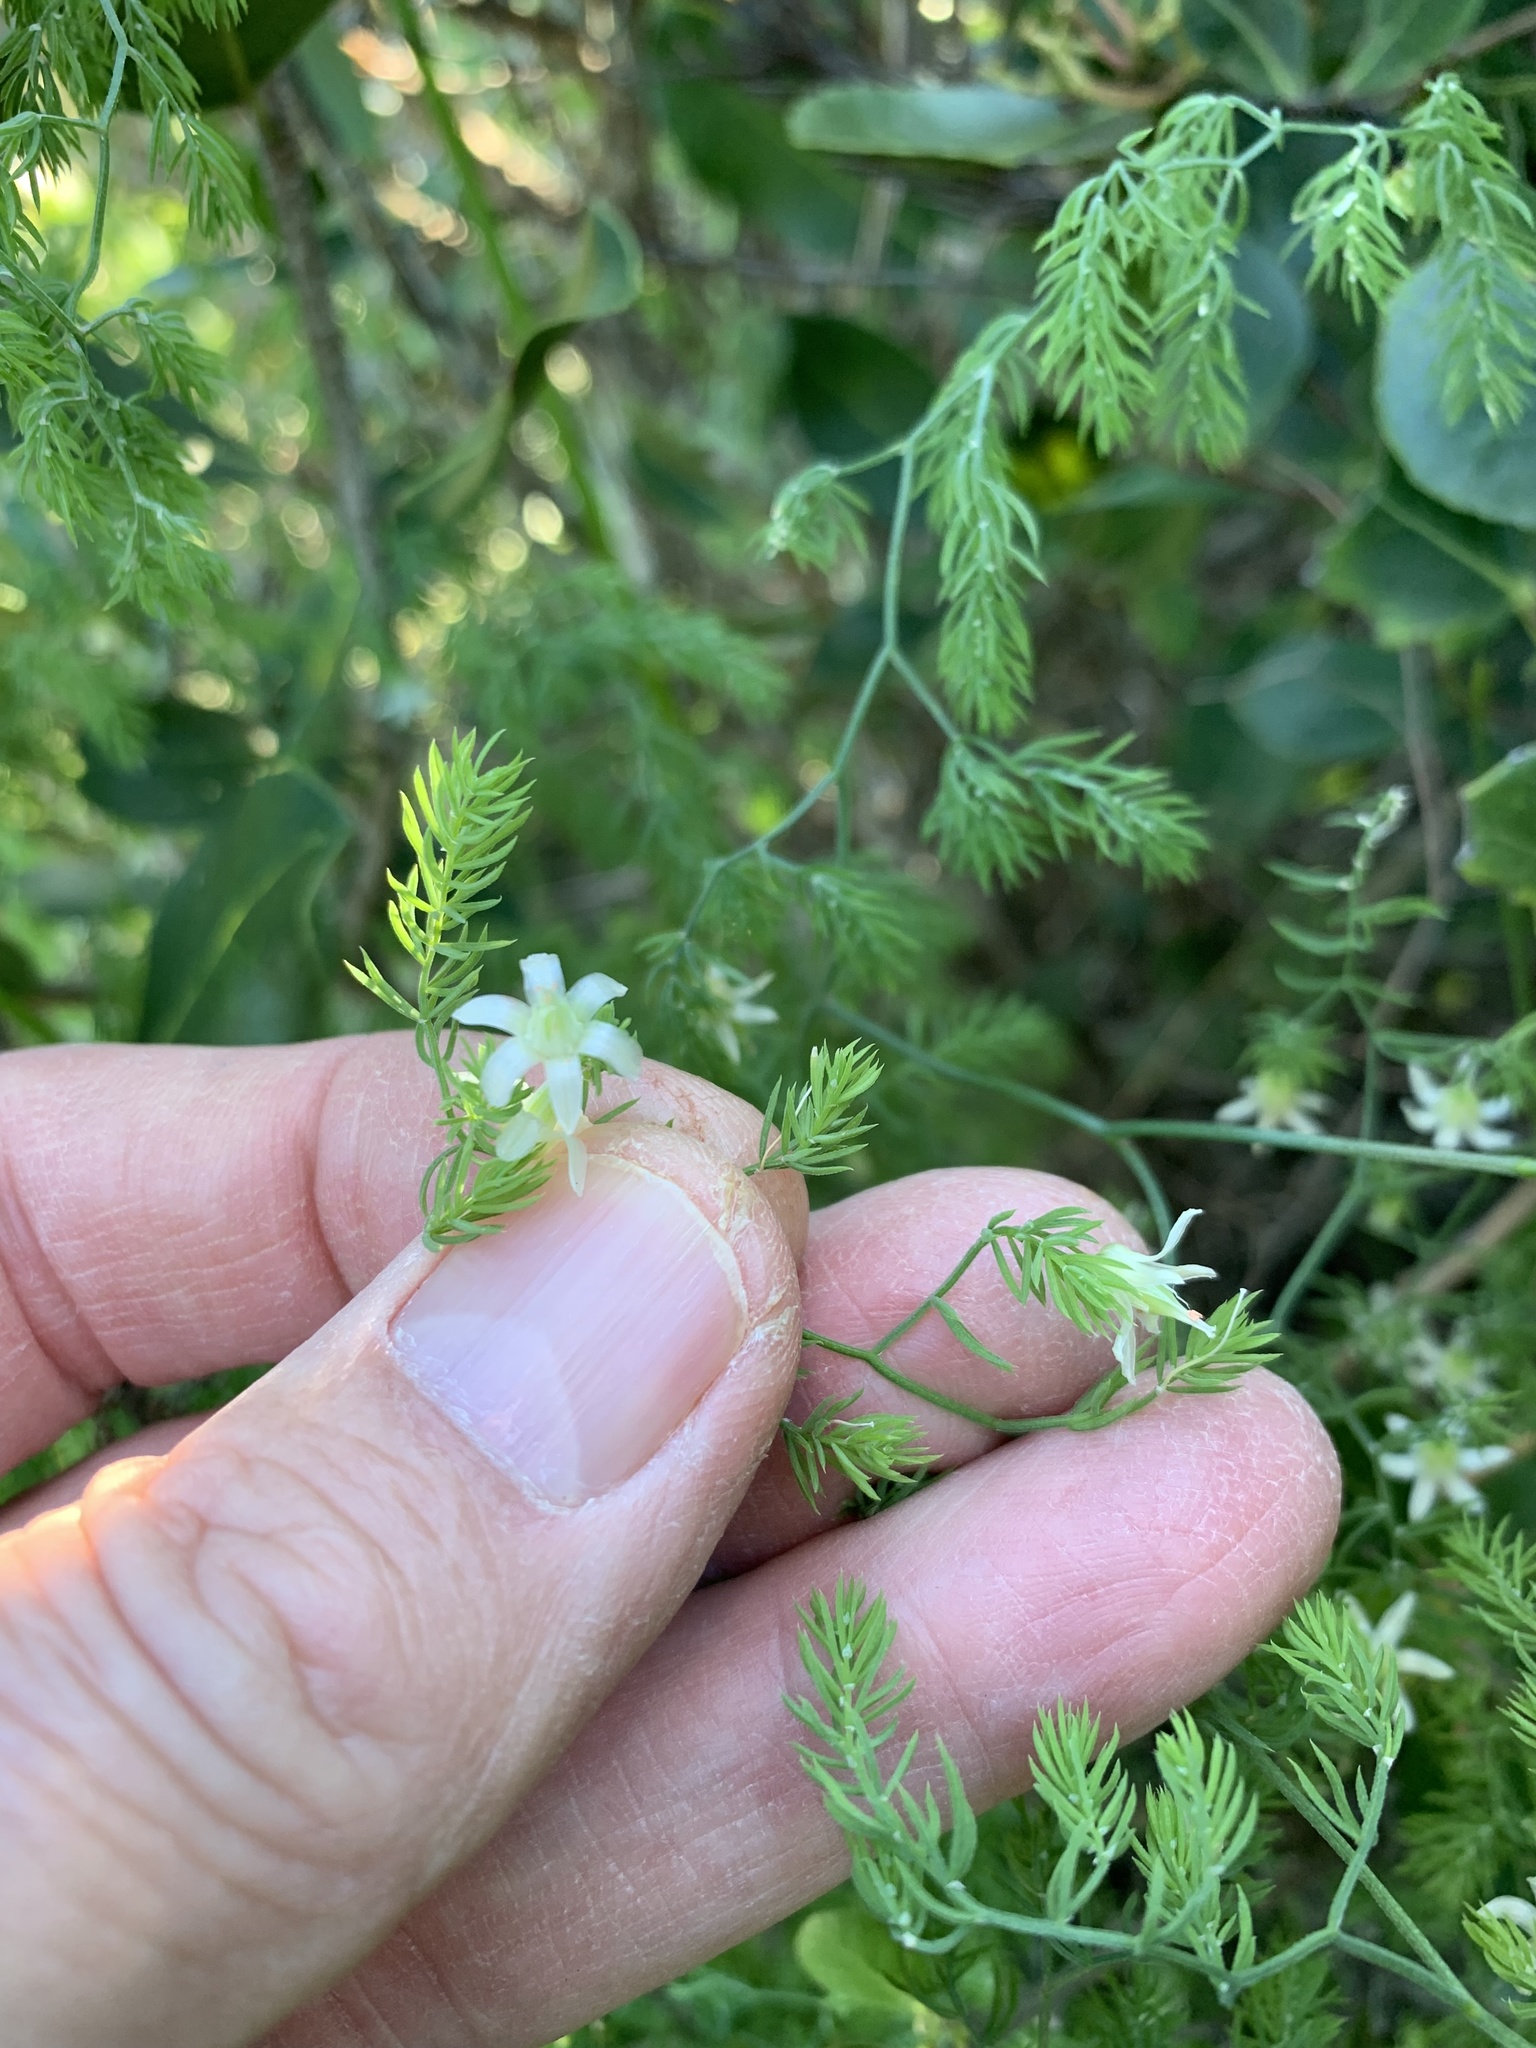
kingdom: Plantae
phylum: Tracheophyta
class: Liliopsida
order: Asparagales
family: Asparagaceae
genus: Asparagus
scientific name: Asparagus declinatus
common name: Bridal-creeper
